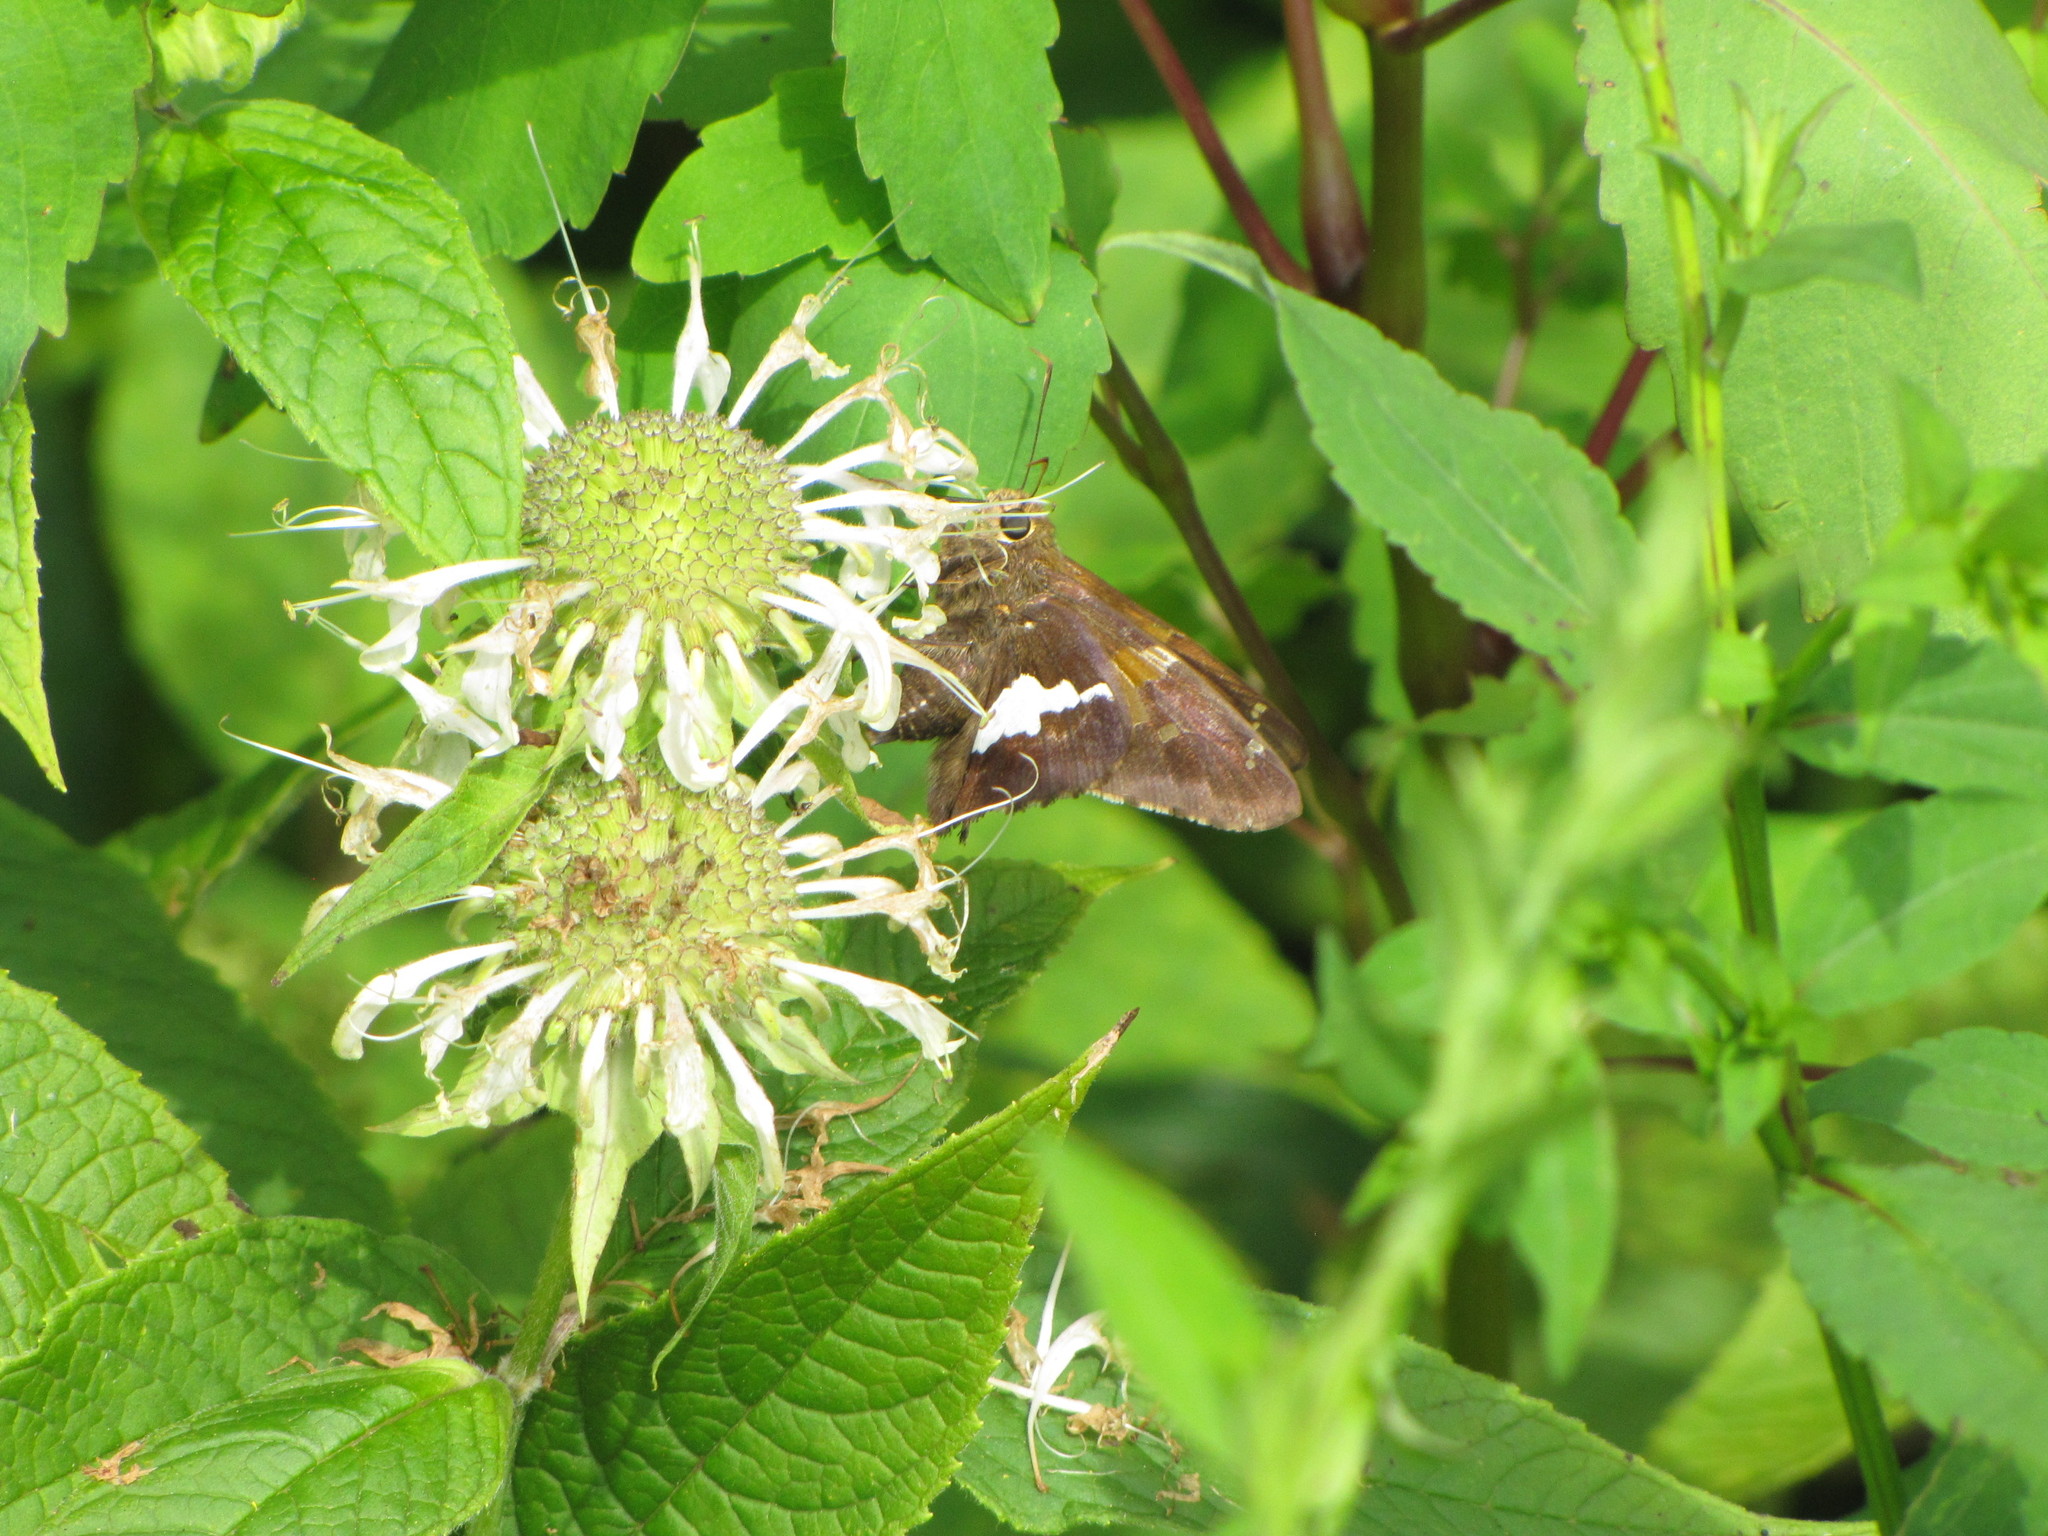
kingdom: Animalia
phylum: Arthropoda
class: Insecta
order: Lepidoptera
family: Hesperiidae
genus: Epargyreus
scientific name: Epargyreus clarus
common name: Silver-spotted skipper
